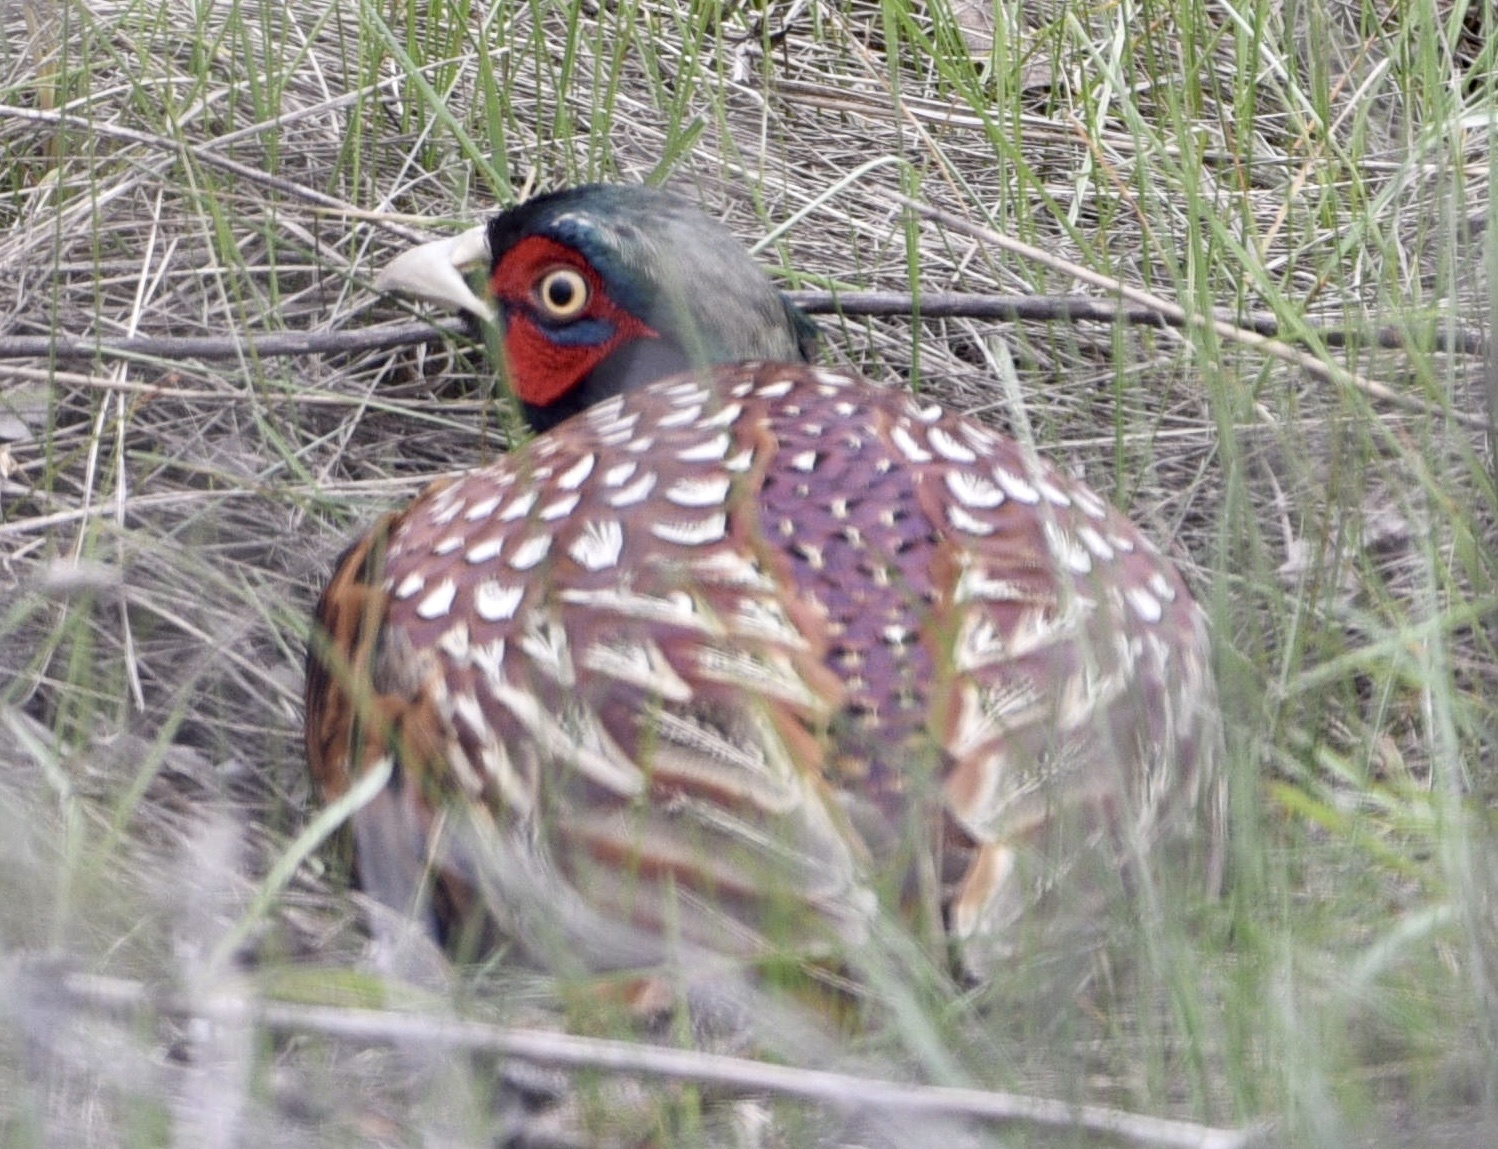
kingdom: Animalia
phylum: Chordata
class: Aves
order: Galliformes
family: Phasianidae
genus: Phasianus
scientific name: Phasianus colchicus
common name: Common pheasant
